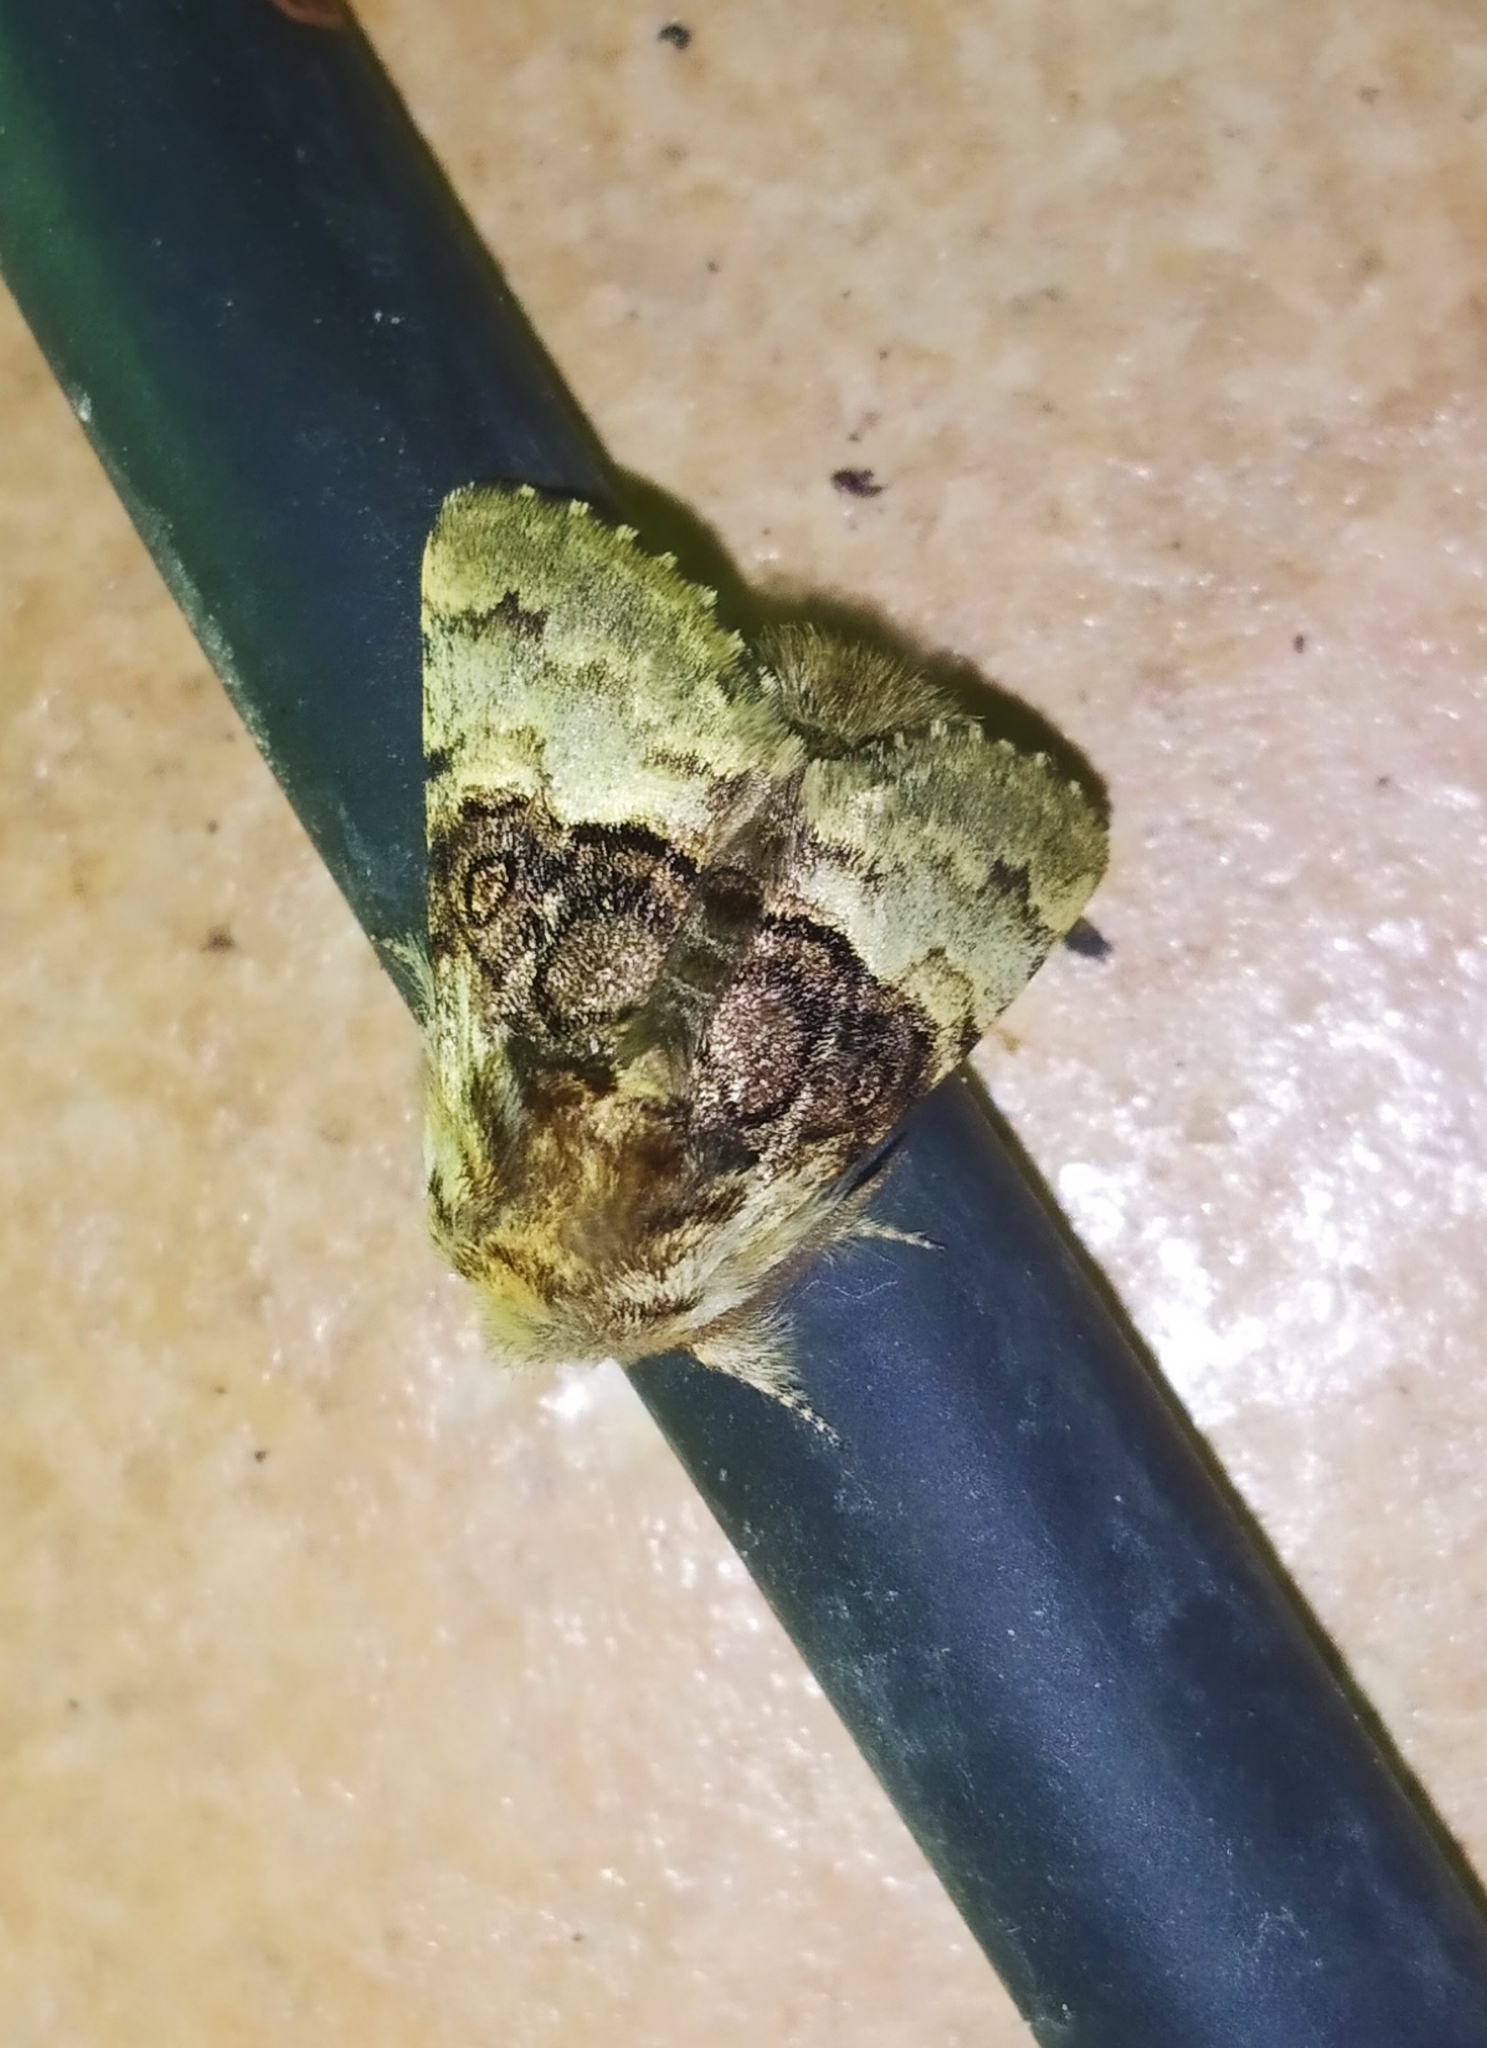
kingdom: Animalia
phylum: Arthropoda
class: Insecta
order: Lepidoptera
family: Noctuidae
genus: Colocasia
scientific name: Colocasia coryli
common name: Nut-tree tussock
